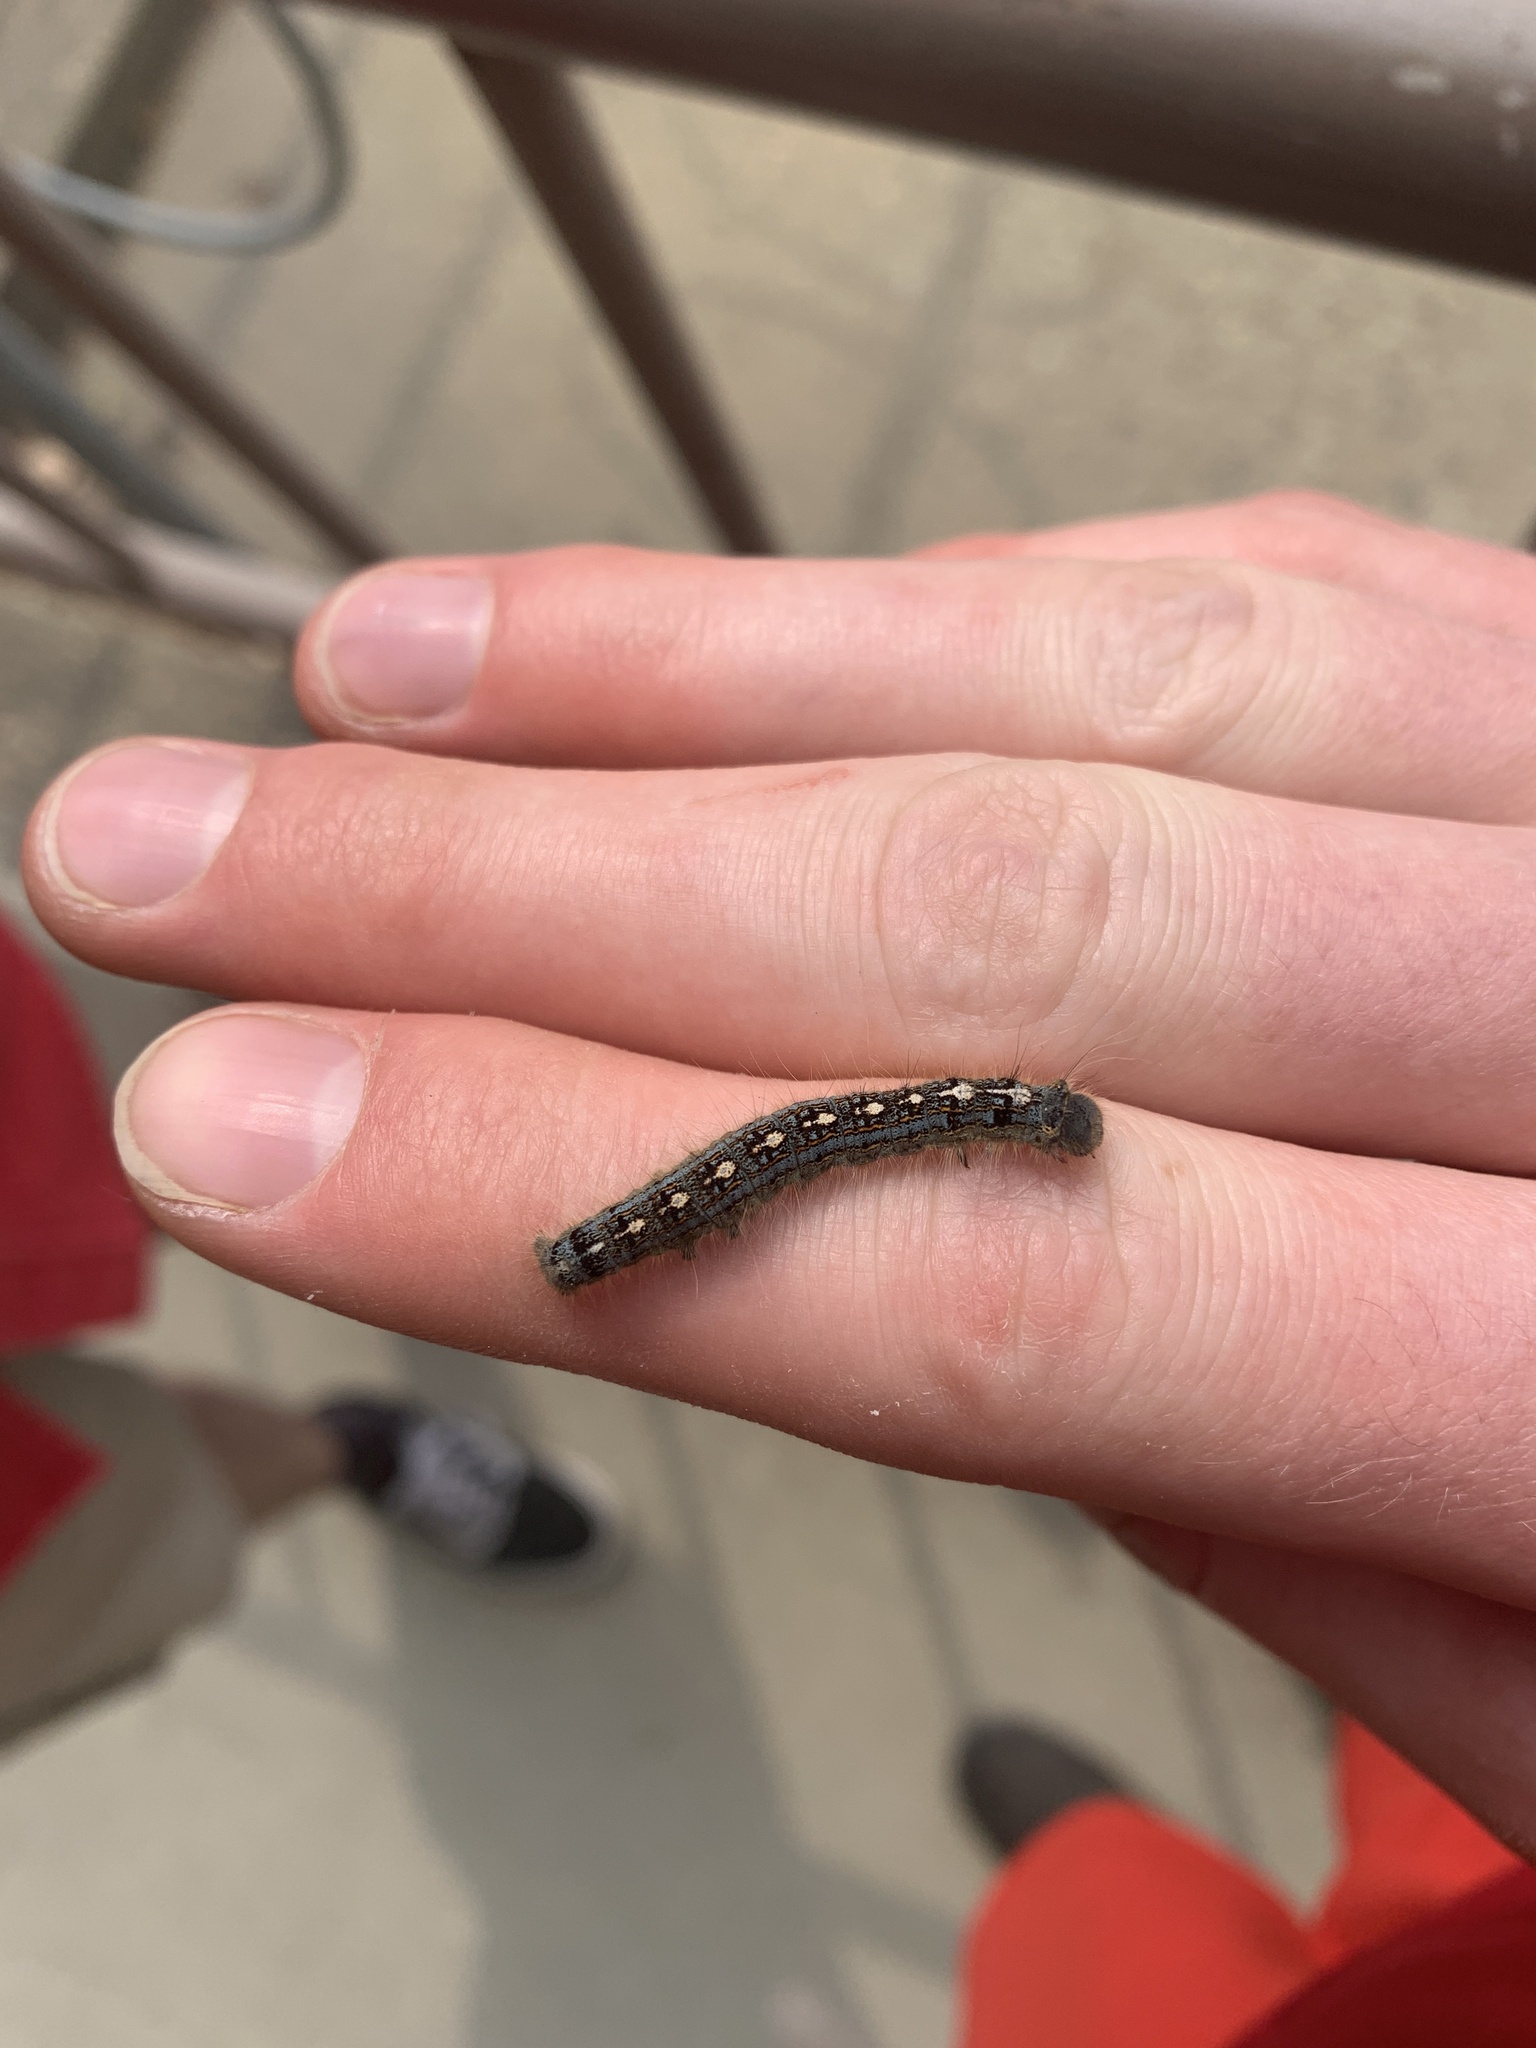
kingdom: Animalia
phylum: Arthropoda
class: Insecta
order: Lepidoptera
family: Lasiocampidae
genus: Malacosoma
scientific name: Malacosoma disstria
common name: Forest tent caterpillar
